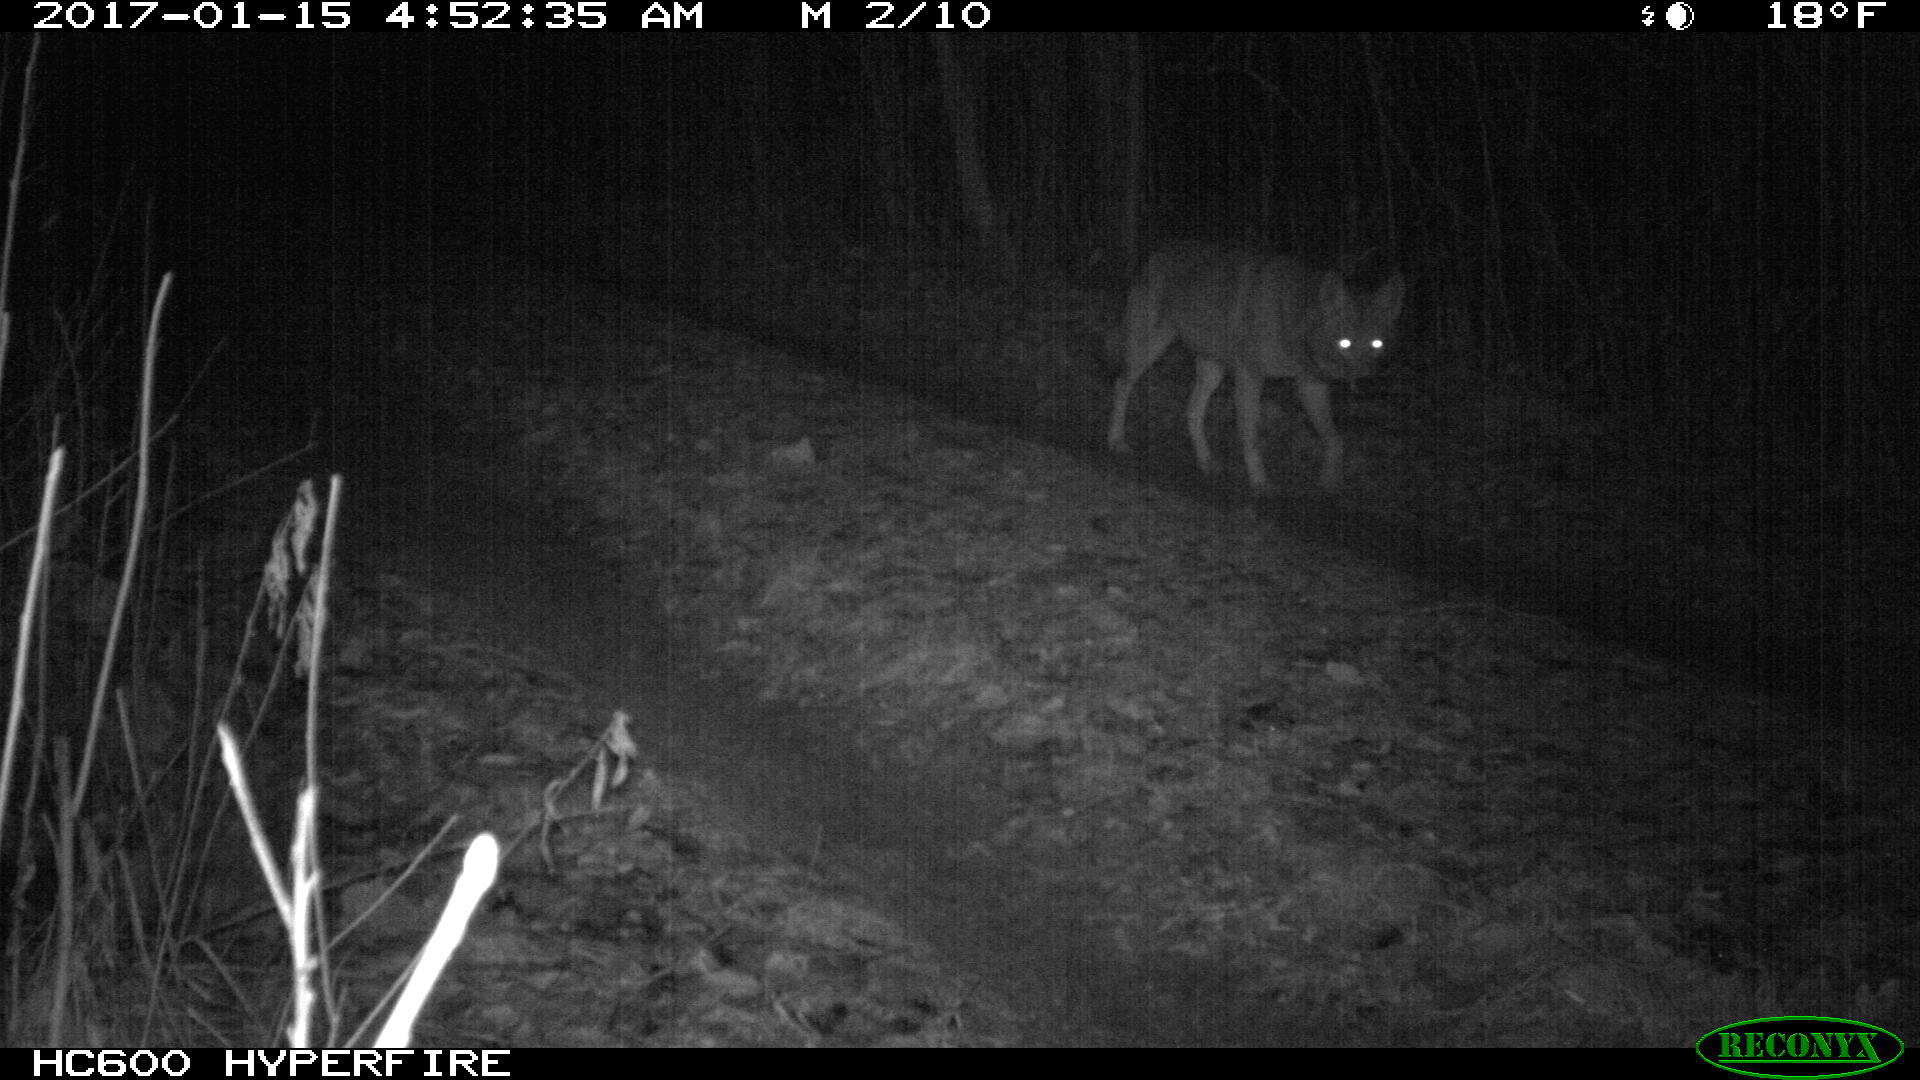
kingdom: Animalia
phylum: Chordata
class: Mammalia
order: Carnivora
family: Canidae
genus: Canis
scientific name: Canis latrans
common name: Coyote
